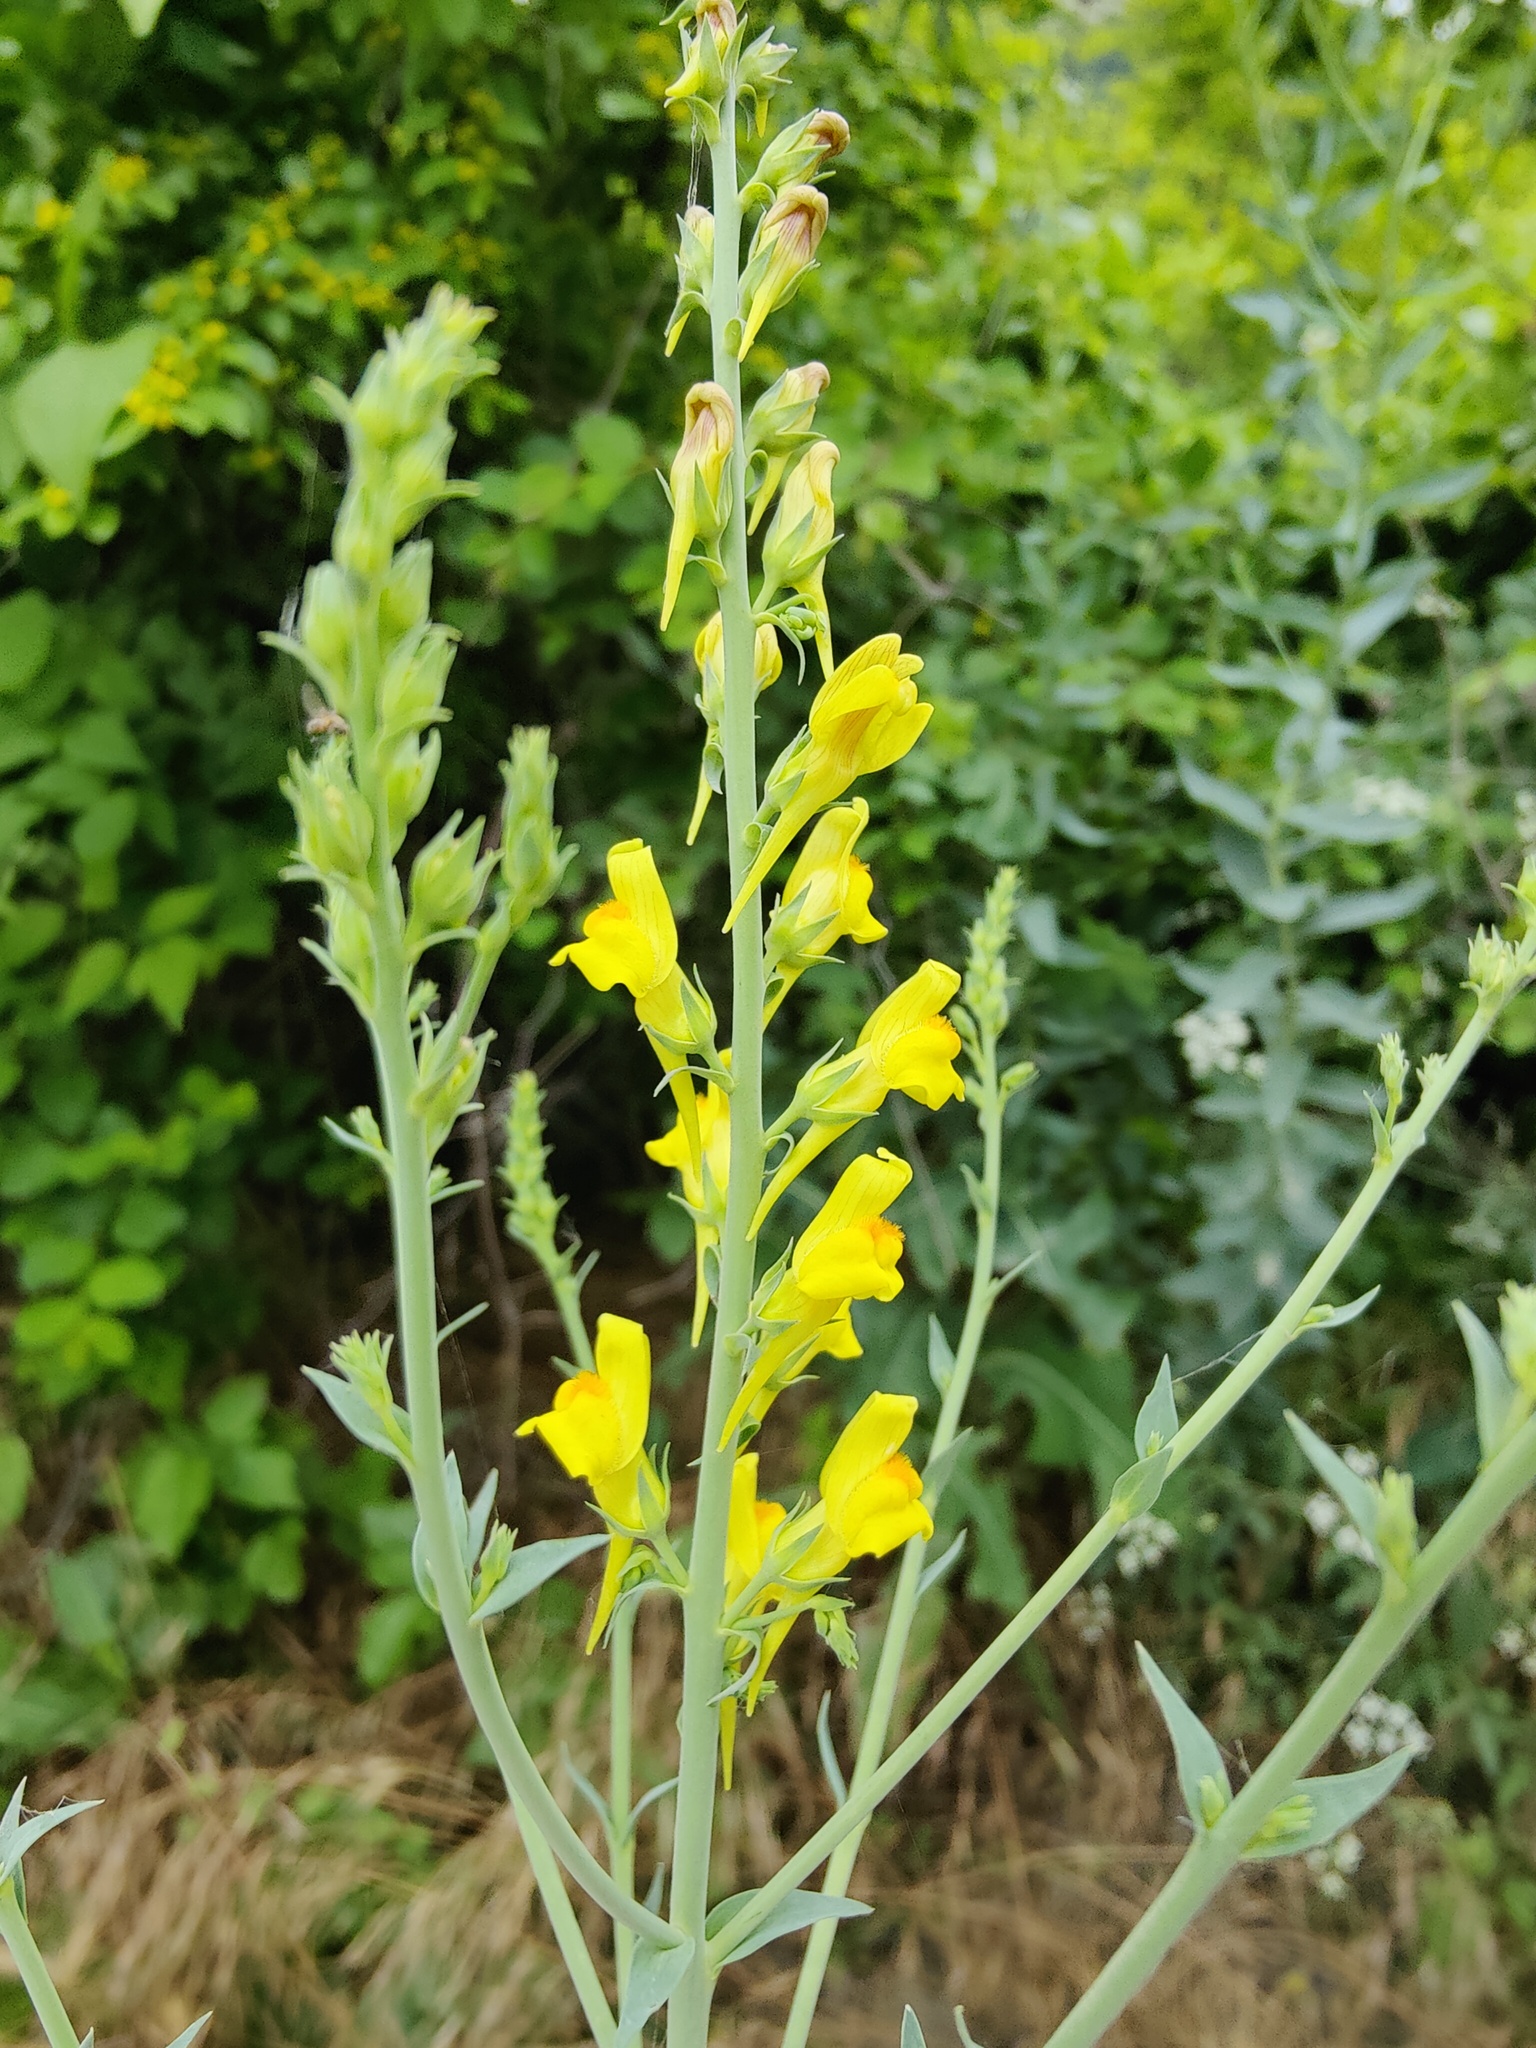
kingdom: Plantae
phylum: Tracheophyta
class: Magnoliopsida
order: Lamiales
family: Plantaginaceae
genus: Linaria
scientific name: Linaria genistifolia
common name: Broomleaf toadflax
